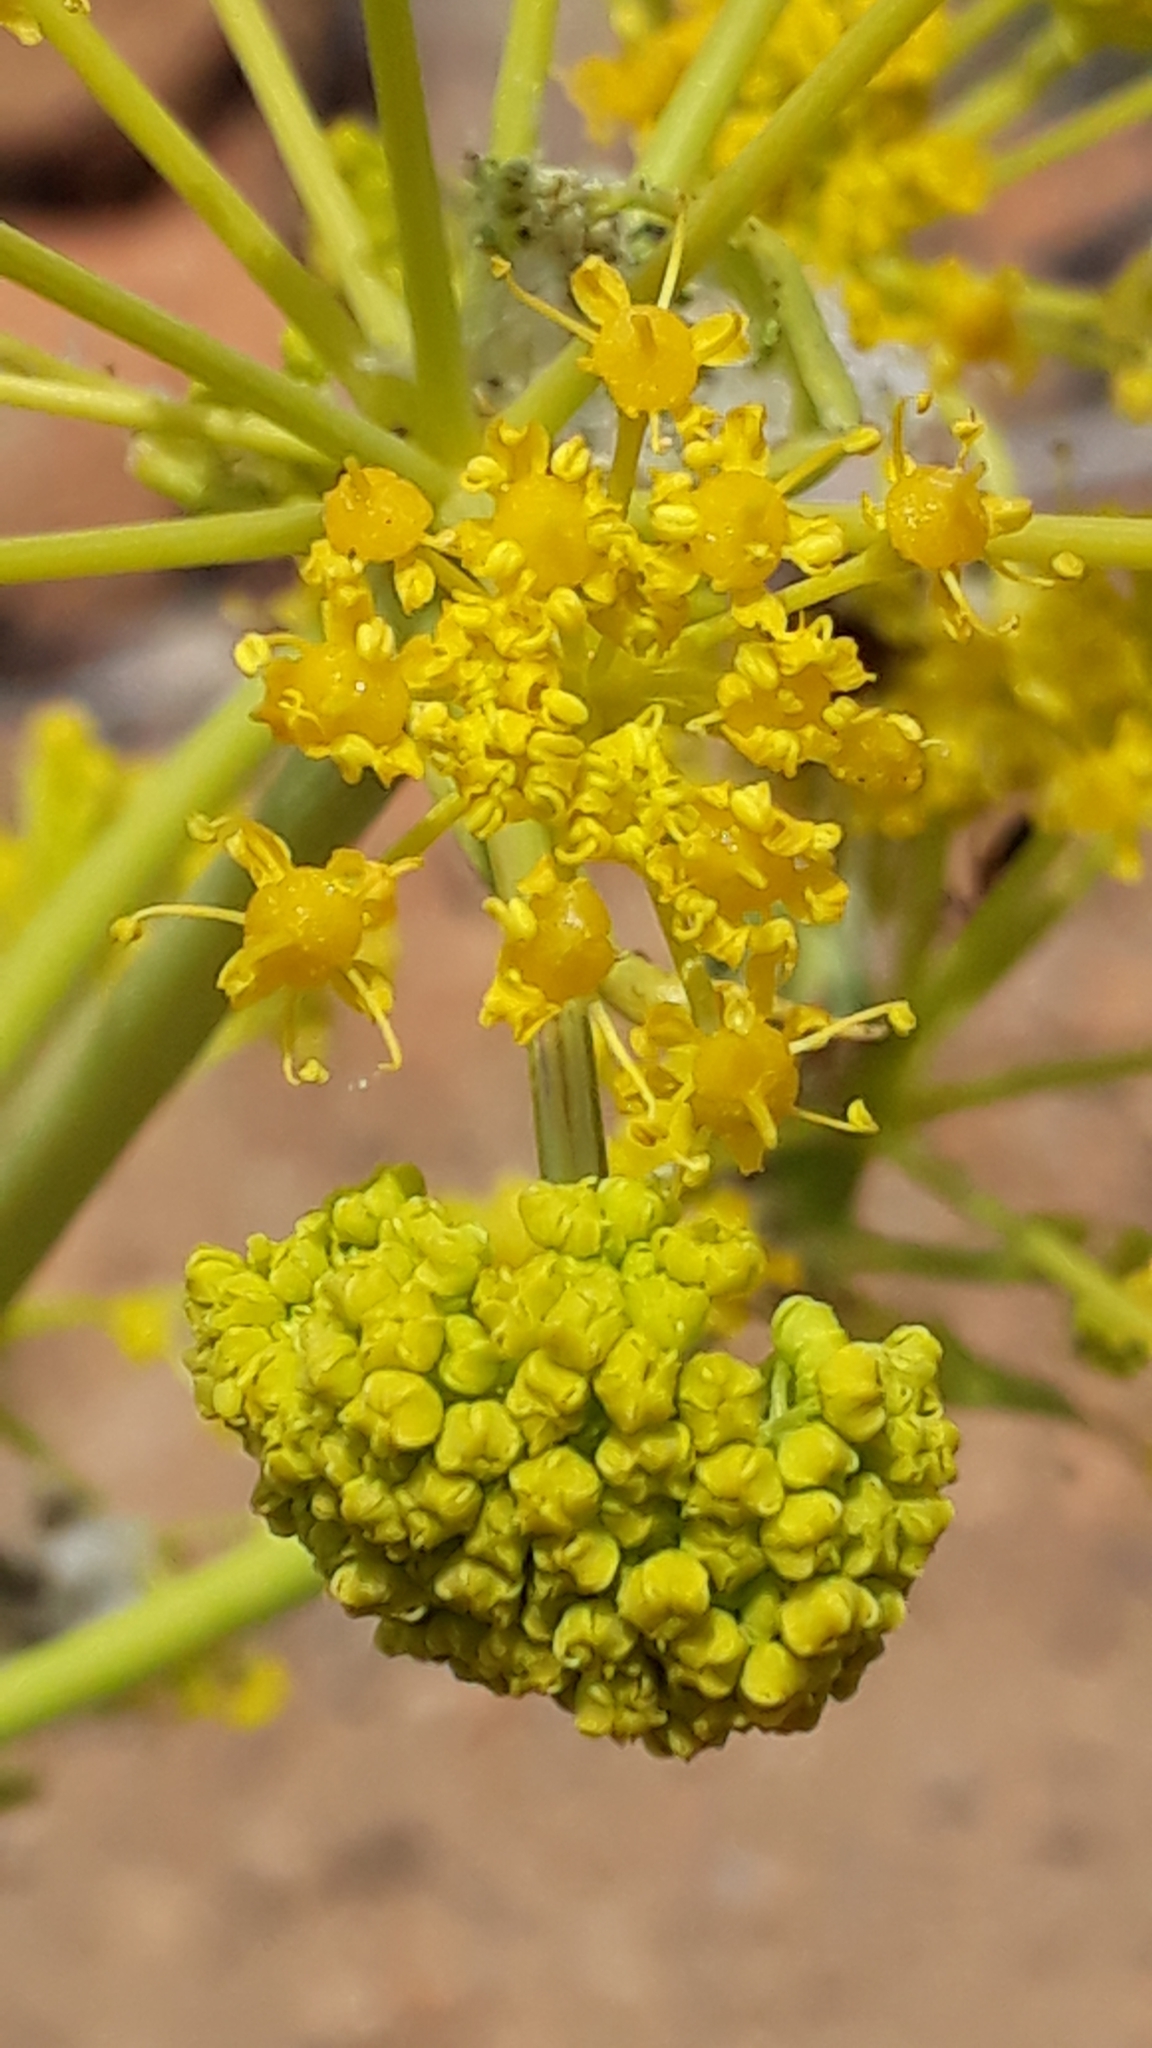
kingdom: Plantae
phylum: Tracheophyta
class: Magnoliopsida
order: Apiales
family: Apiaceae
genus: Ferula
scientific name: Ferula communis
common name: Giant fennel
